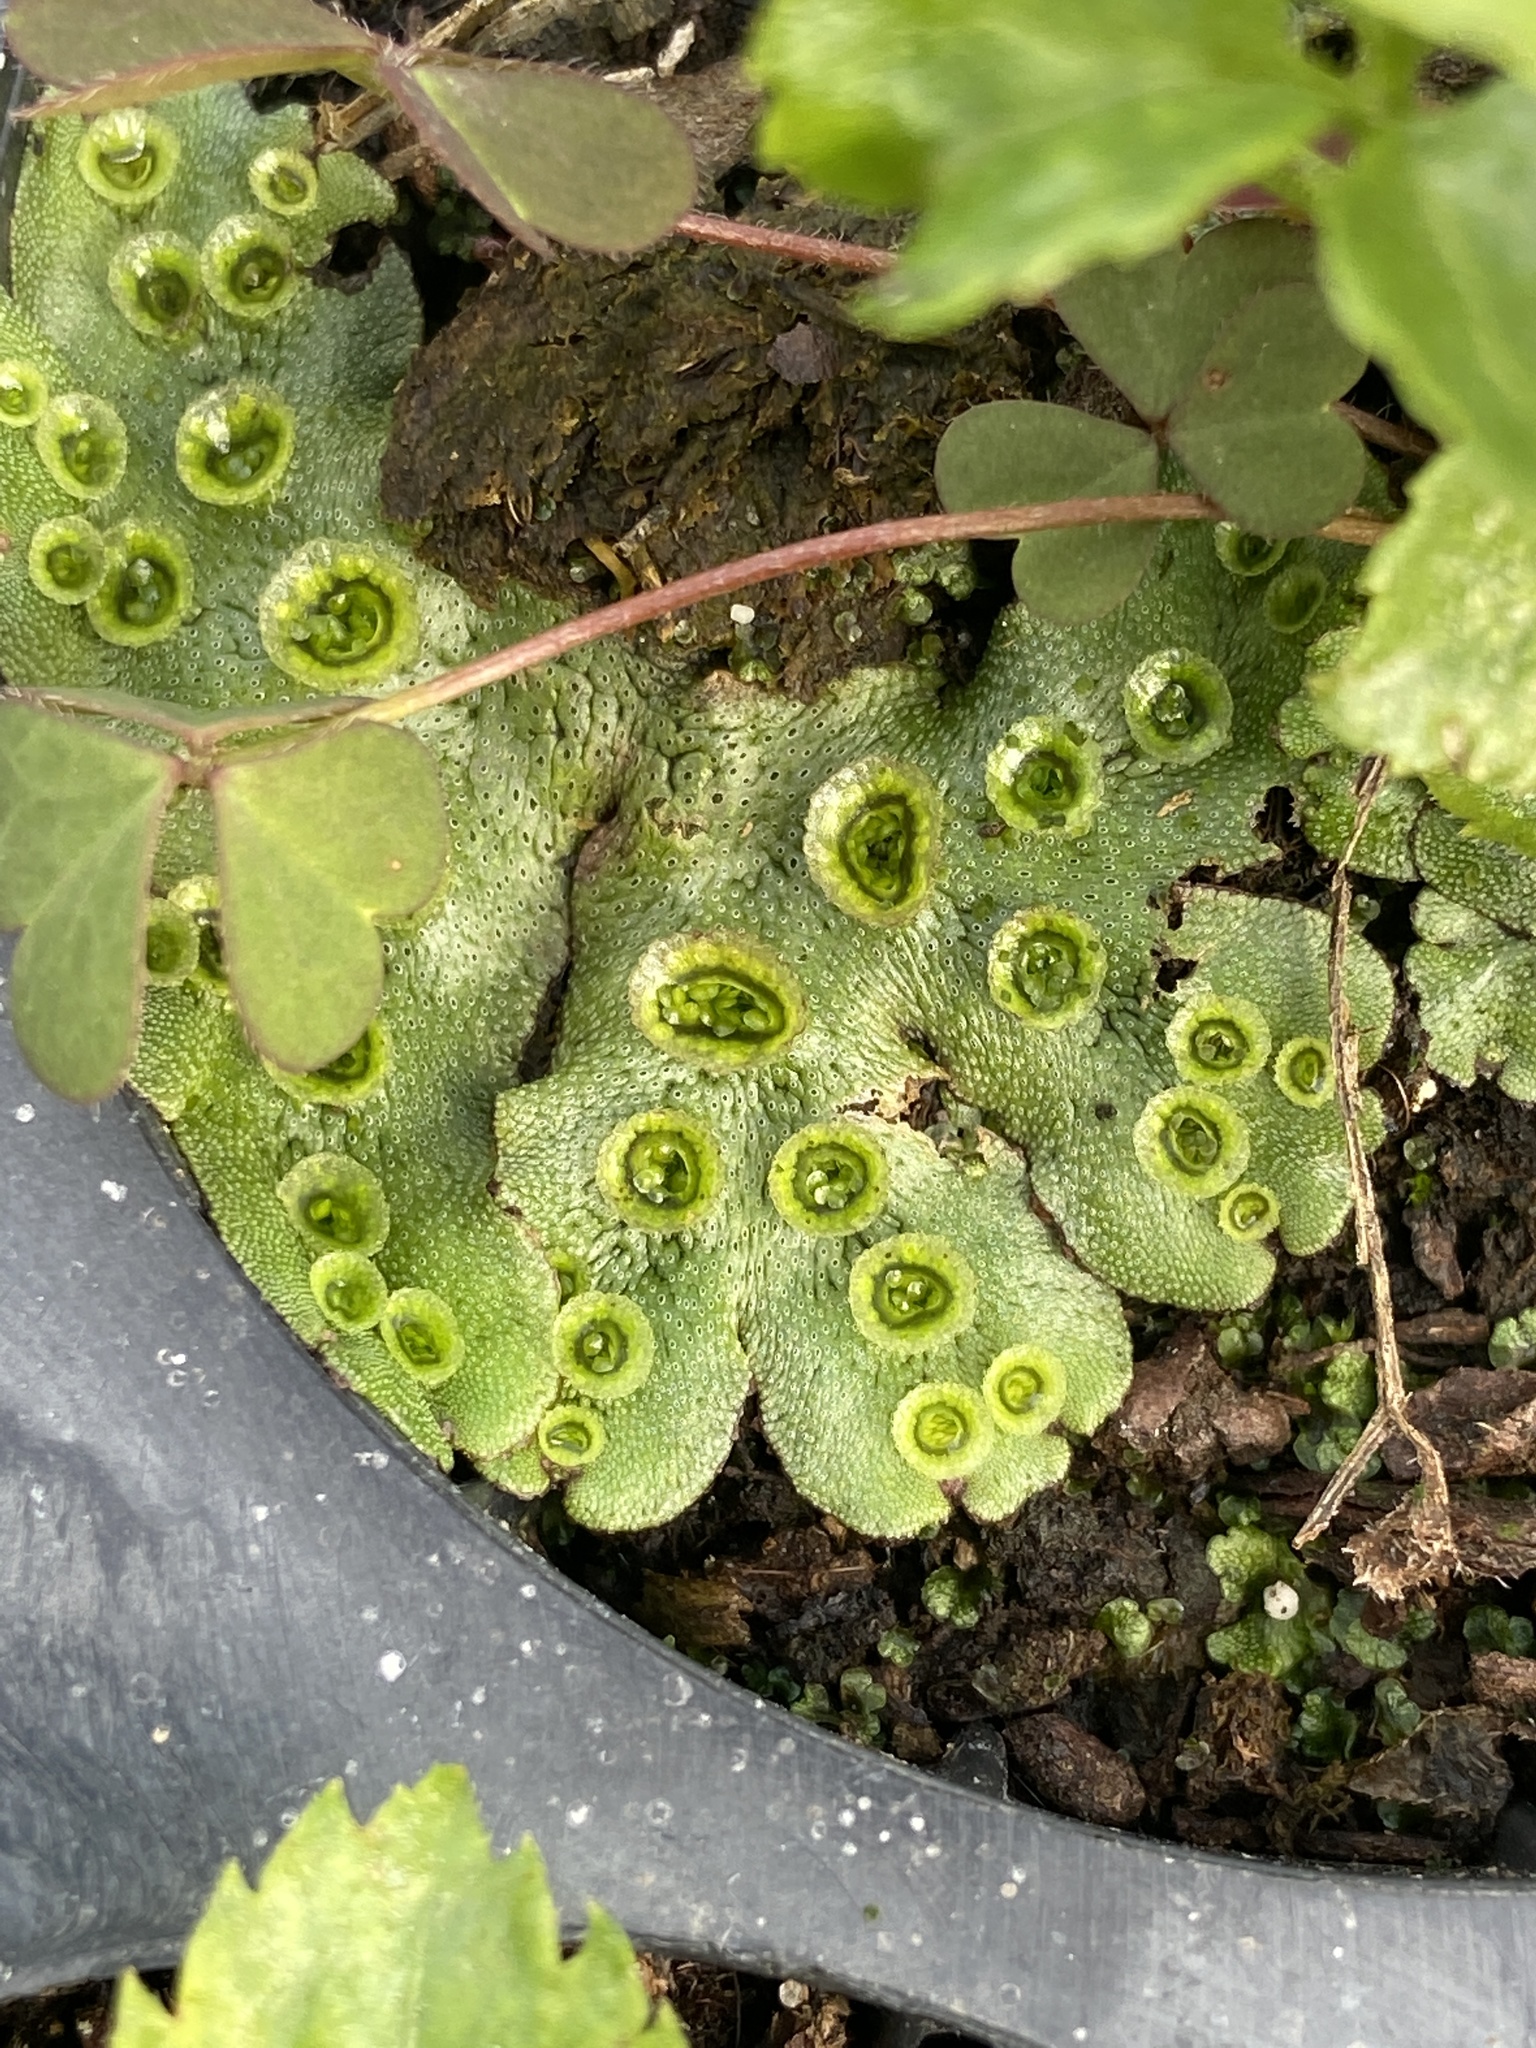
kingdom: Plantae
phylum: Marchantiophyta
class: Marchantiopsida
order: Marchantiales
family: Marchantiaceae
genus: Marchantia
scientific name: Marchantia polymorpha
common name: Common liverwort
